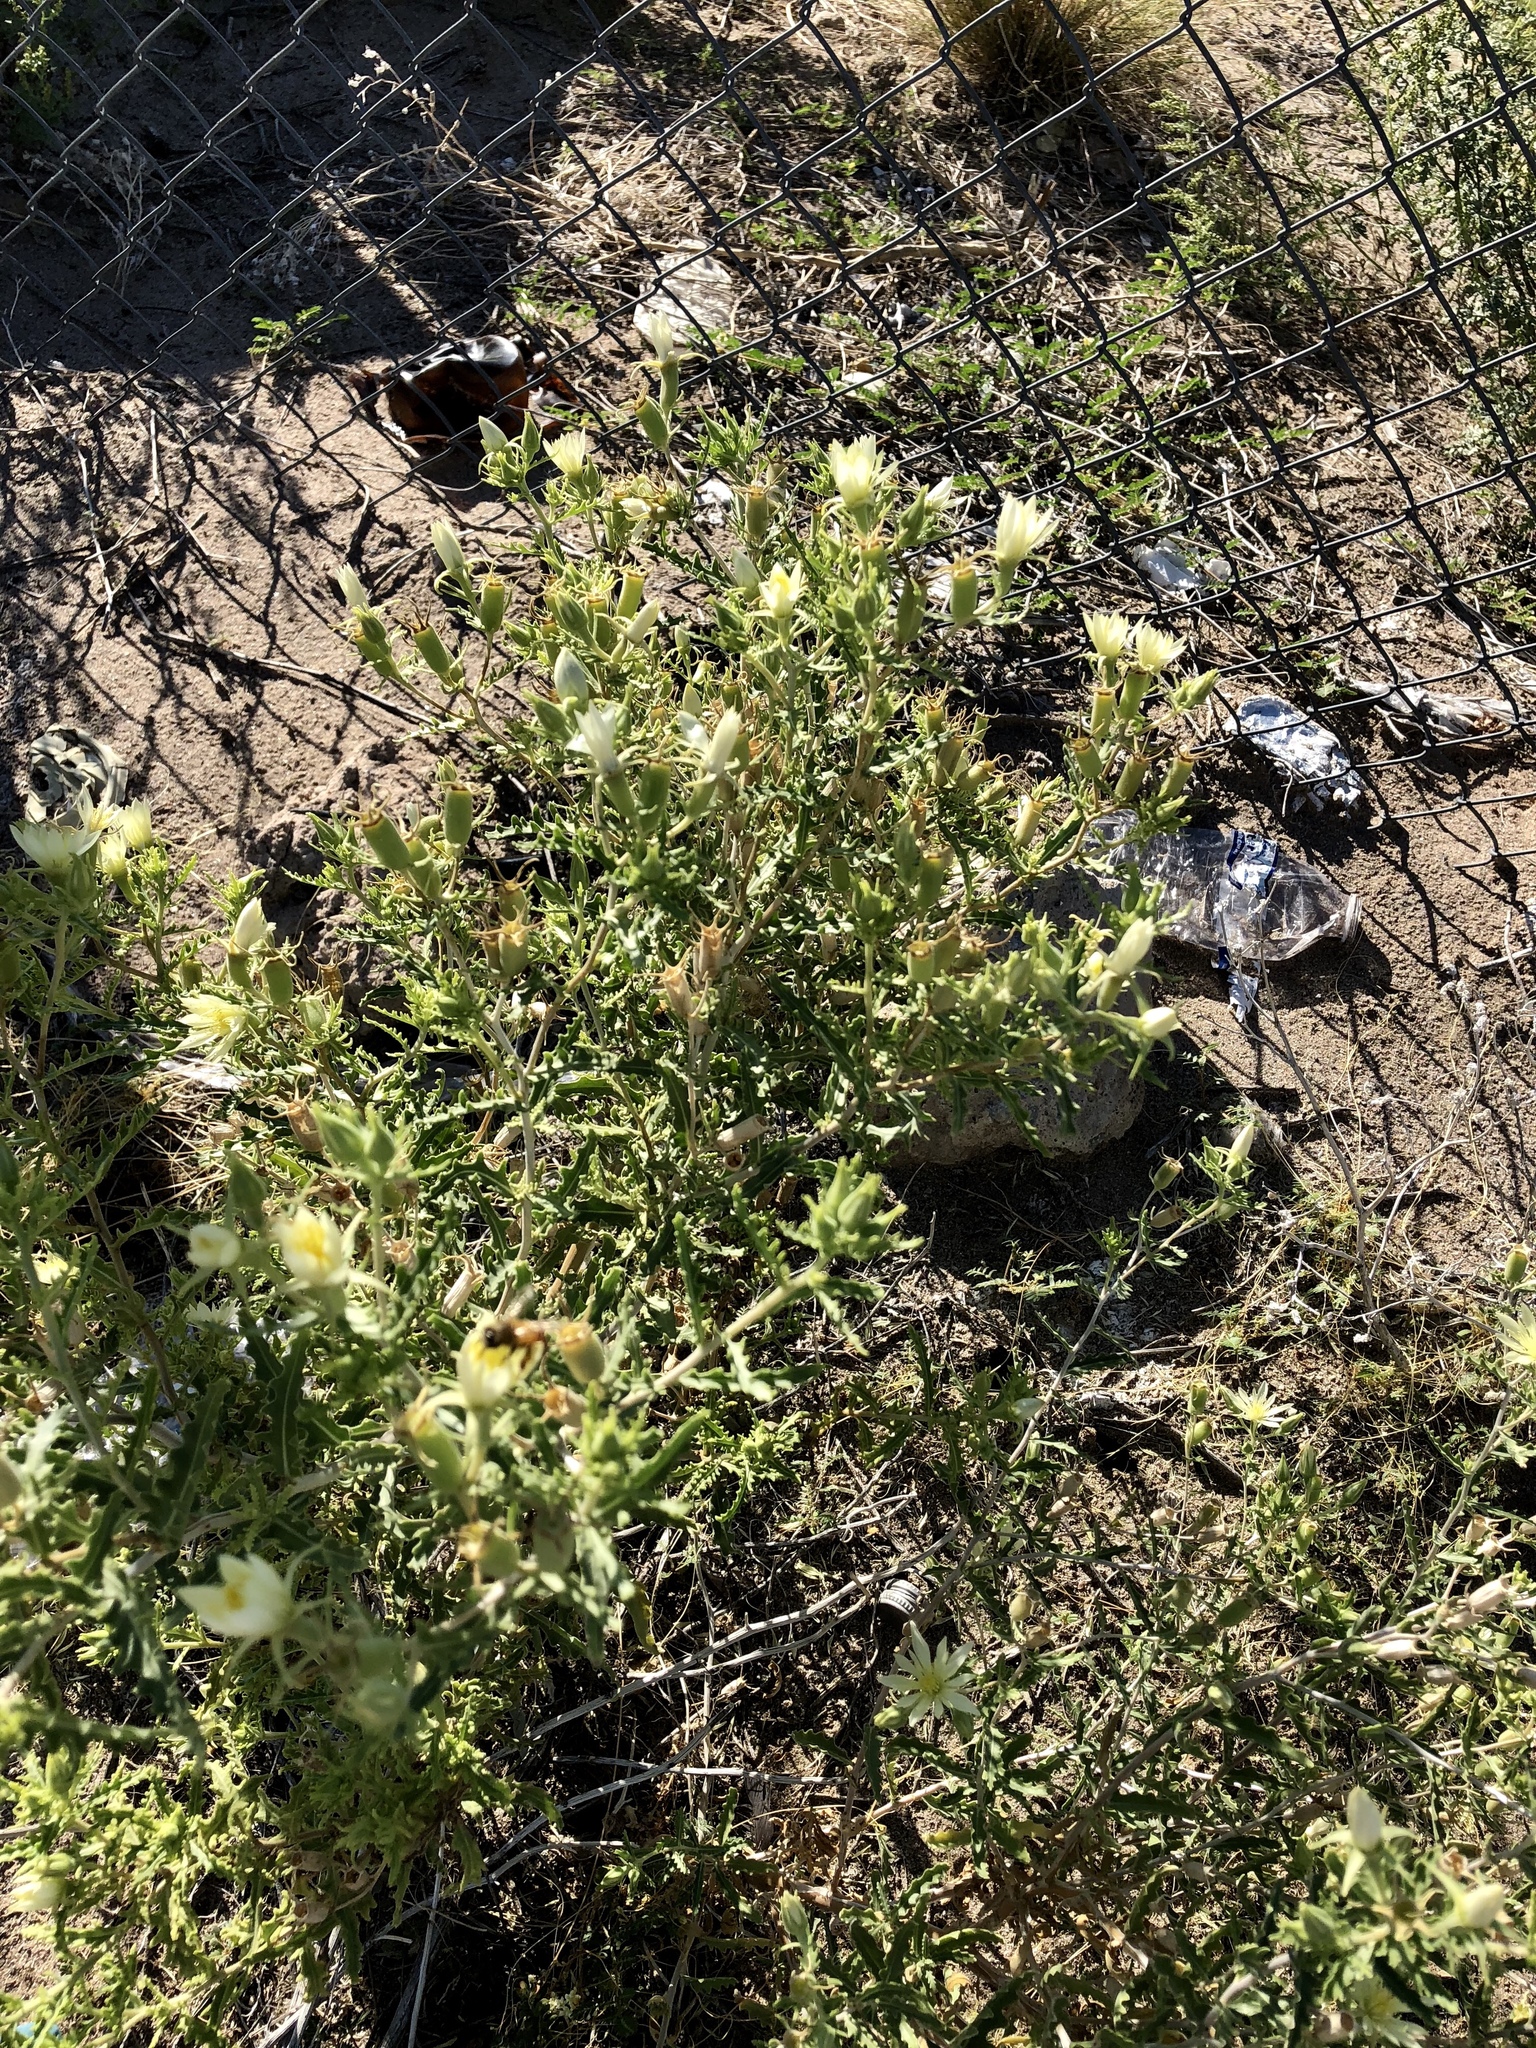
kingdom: Plantae
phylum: Tracheophyta
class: Magnoliopsida
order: Cornales
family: Loasaceae
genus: Mentzelia
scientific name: Mentzelia longiloba
